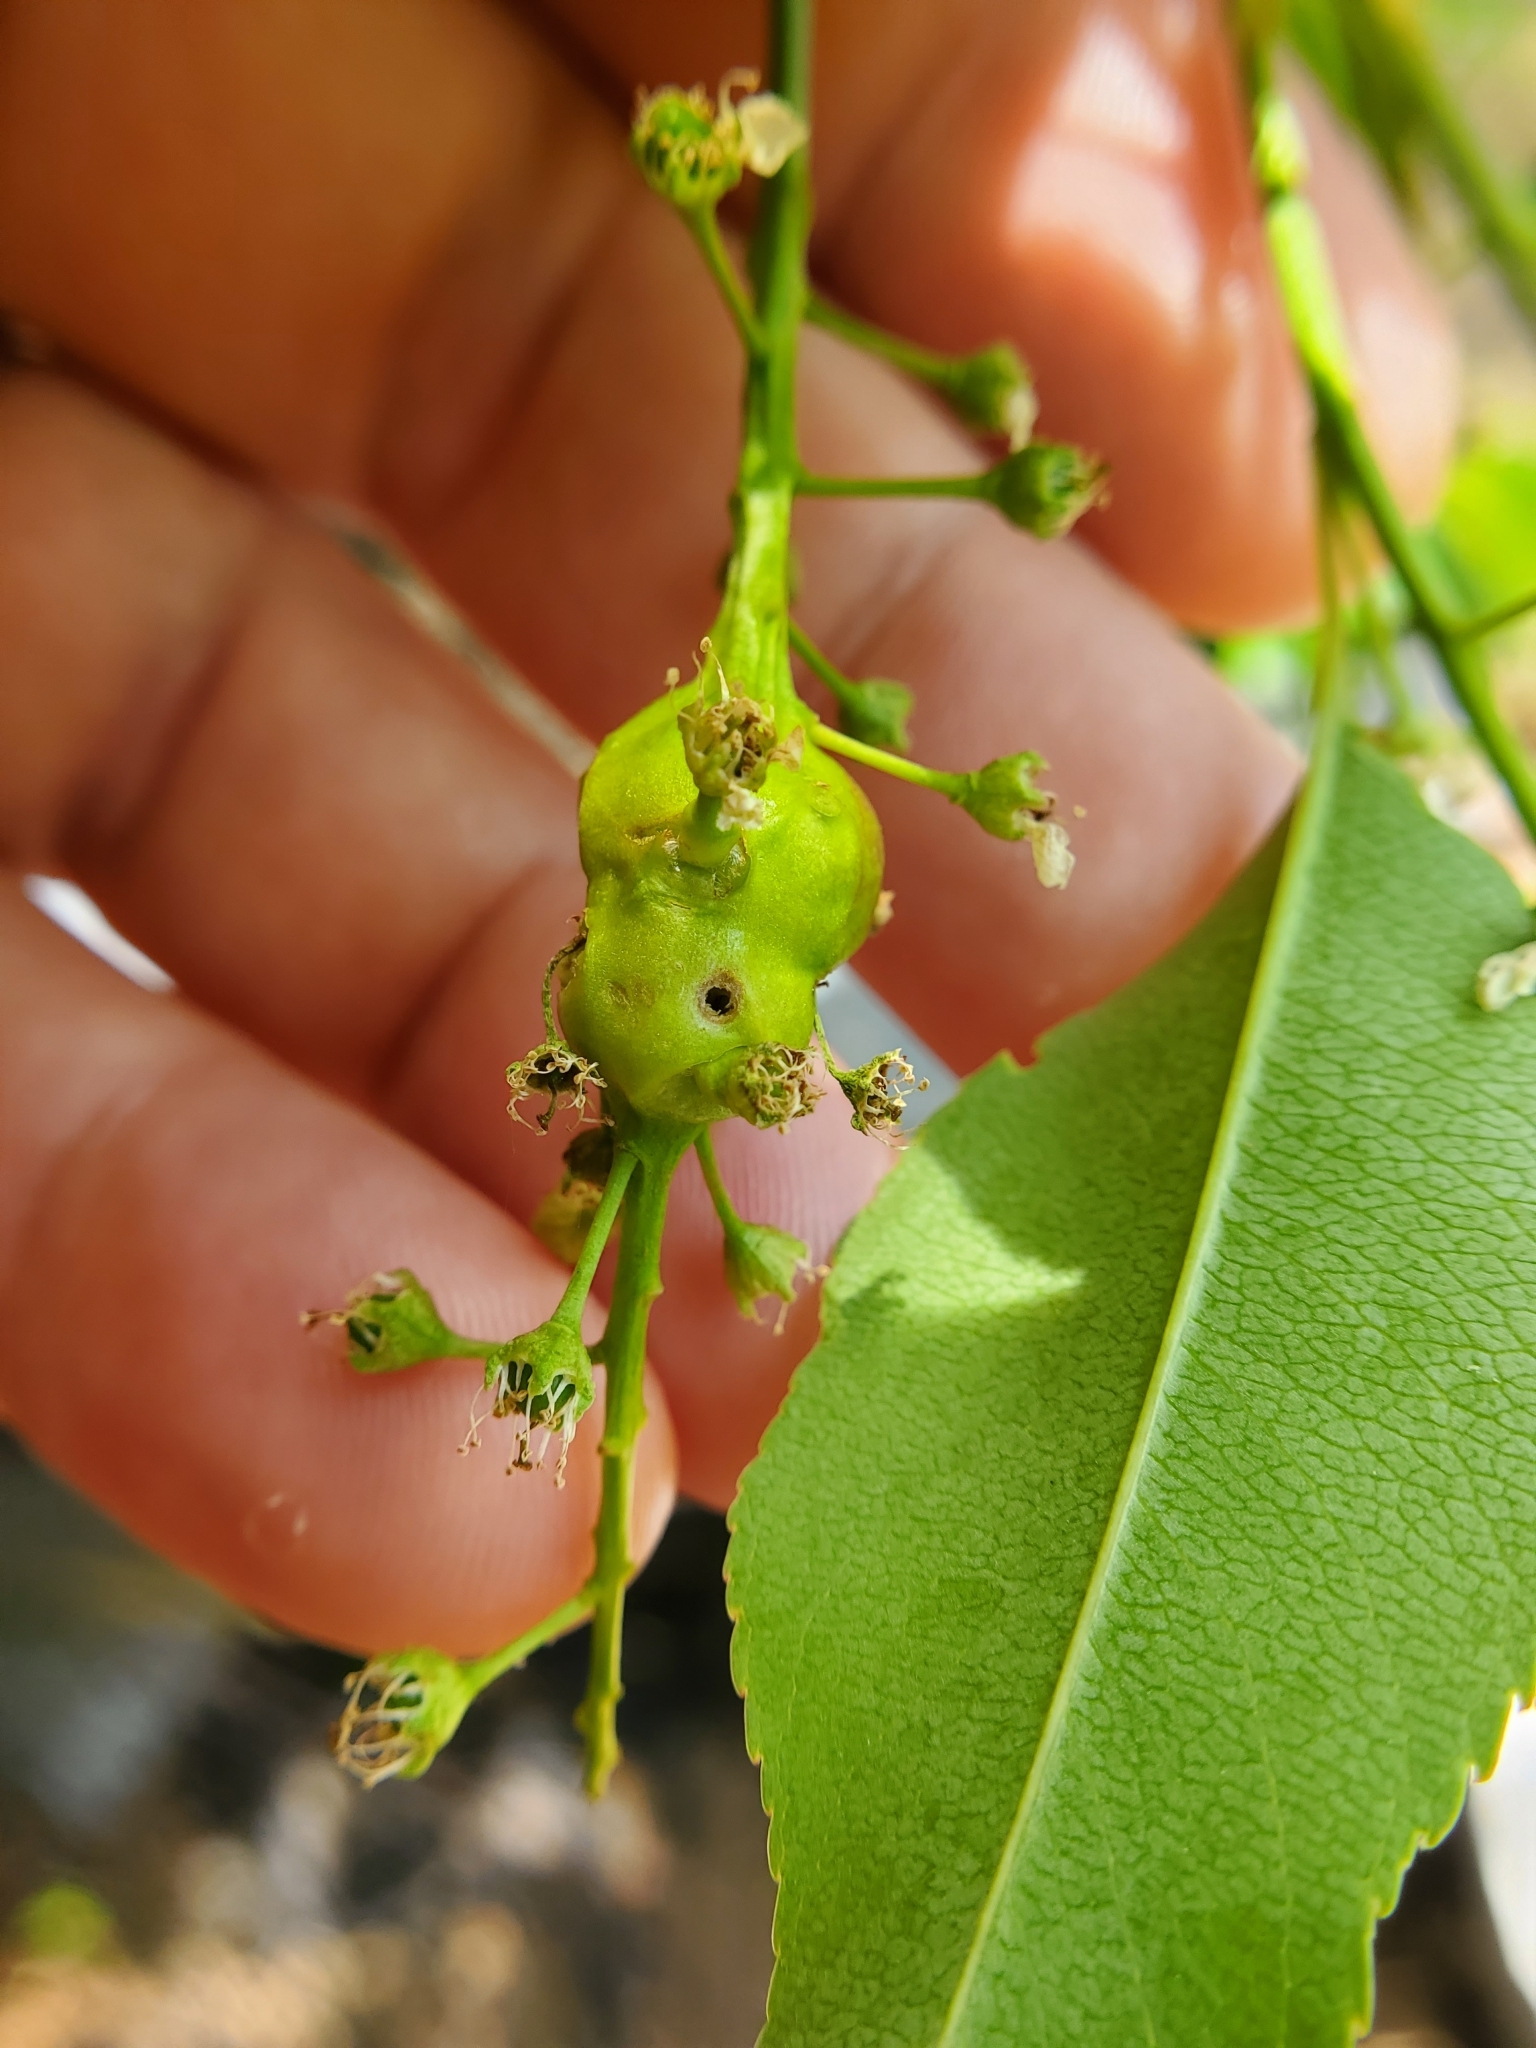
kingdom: Animalia
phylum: Arthropoda
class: Insecta
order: Diptera
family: Cecidomyiidae
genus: Contarinia
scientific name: Contarinia racemi
